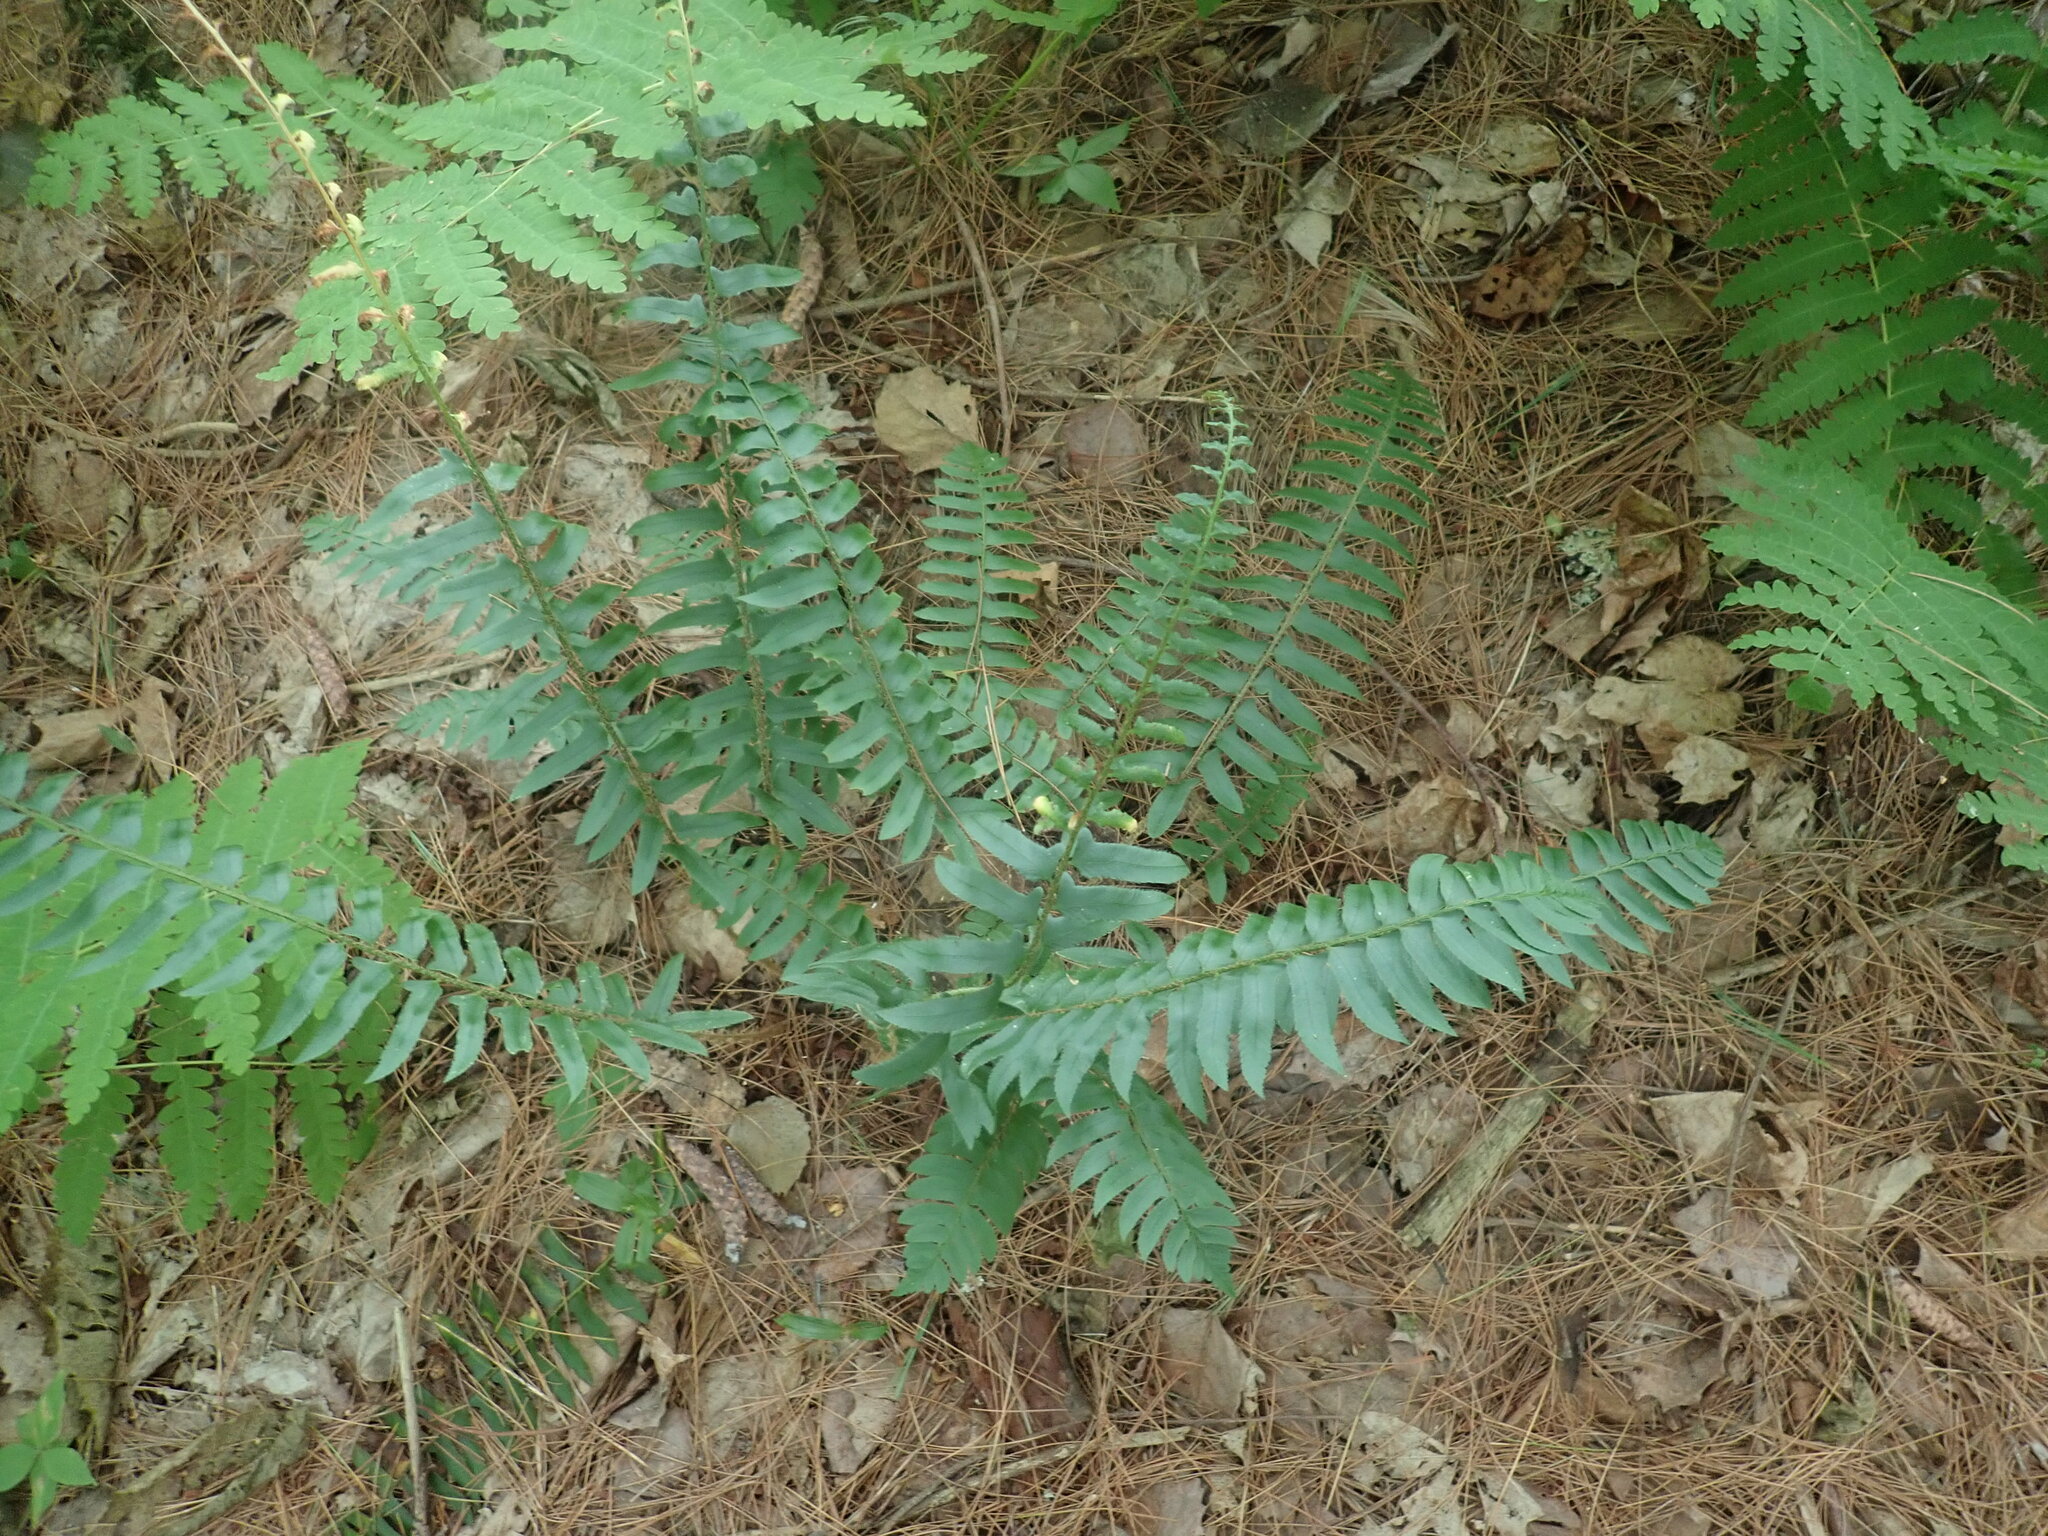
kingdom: Plantae
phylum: Tracheophyta
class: Polypodiopsida
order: Polypodiales
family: Dryopteridaceae
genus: Polystichum
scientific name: Polystichum acrostichoides
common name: Christmas fern
